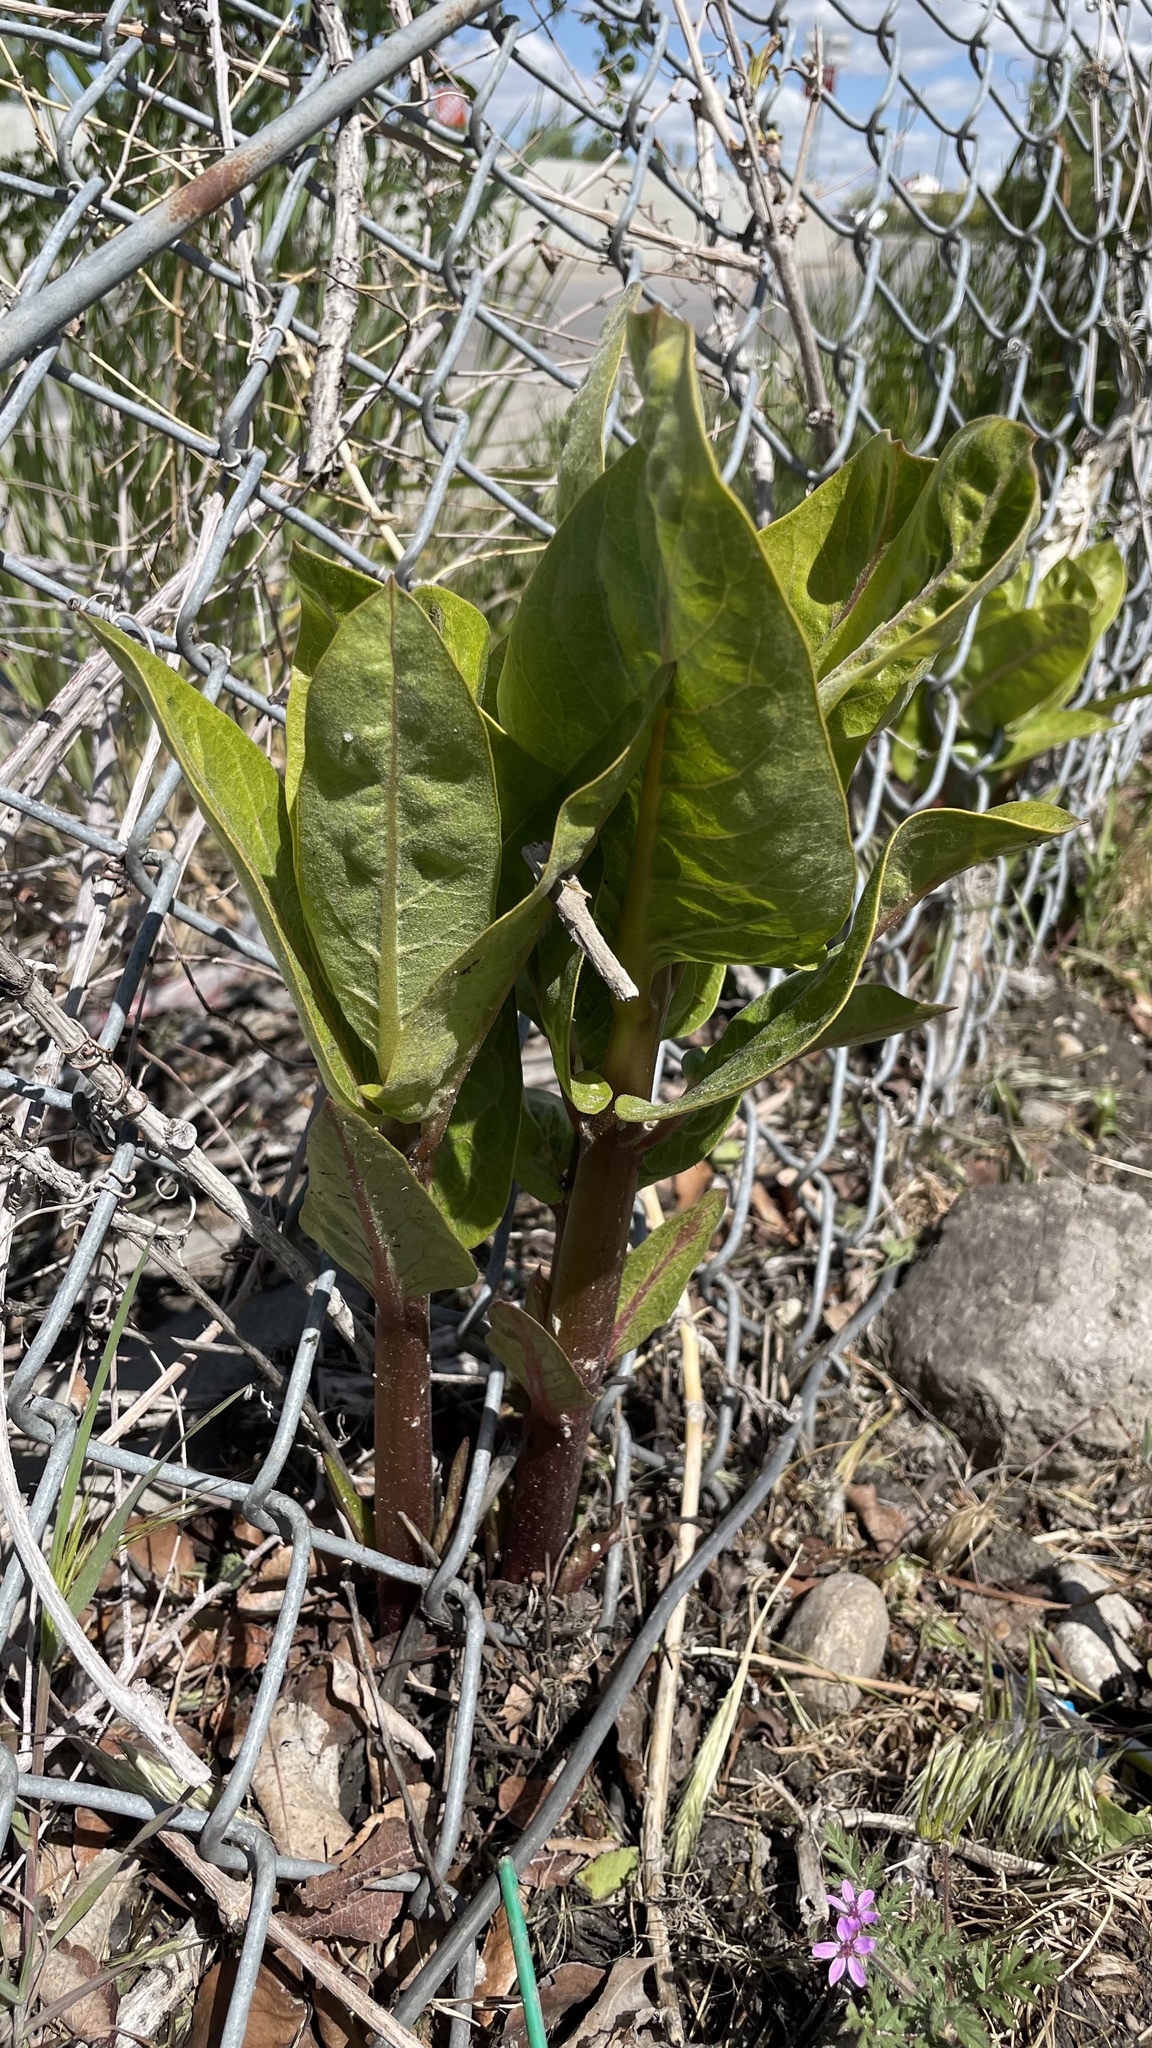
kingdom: Plantae
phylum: Tracheophyta
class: Magnoliopsida
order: Gentianales
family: Apocynaceae
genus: Asclepias
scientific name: Asclepias speciosa
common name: Showy milkweed
